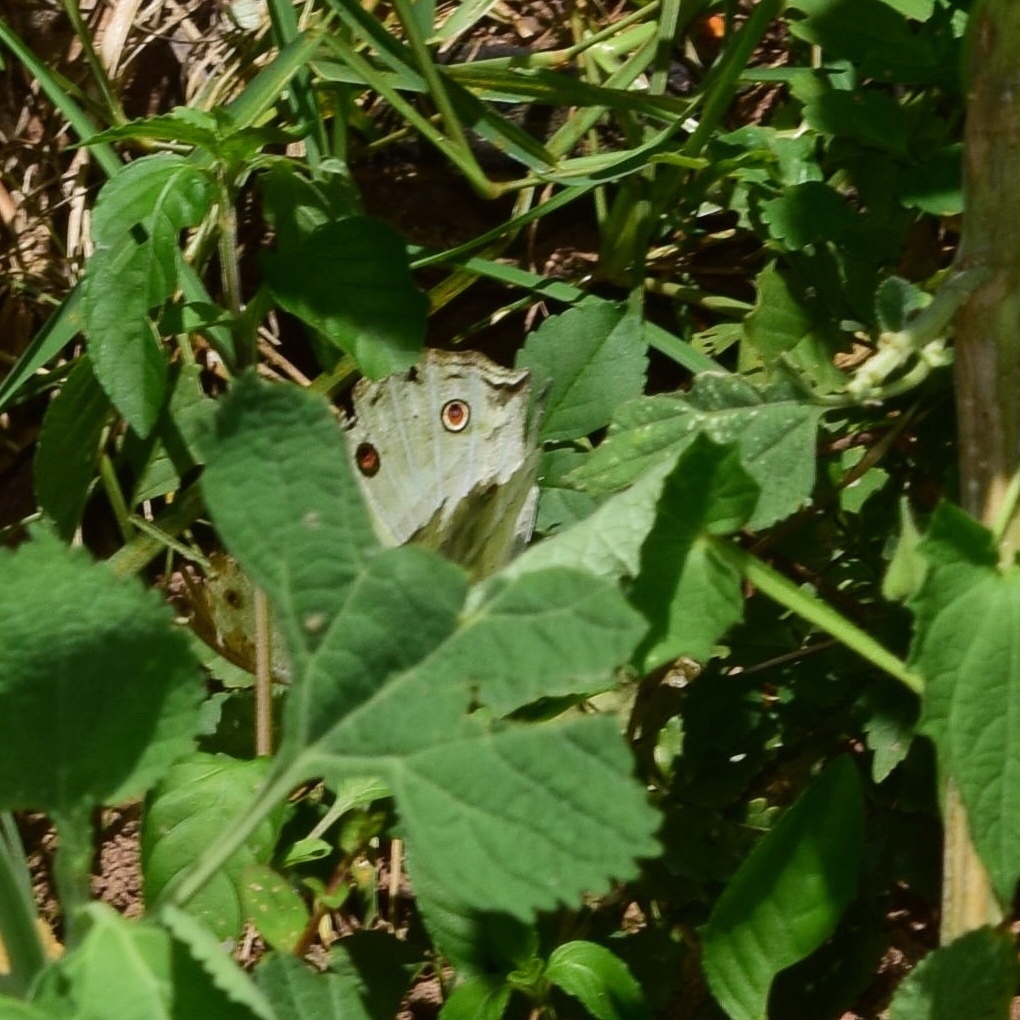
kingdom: Animalia
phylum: Arthropoda
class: Insecta
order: Lepidoptera
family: Nymphalidae
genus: Salamis
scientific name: Salamis Protogoniomorpha parhassus
